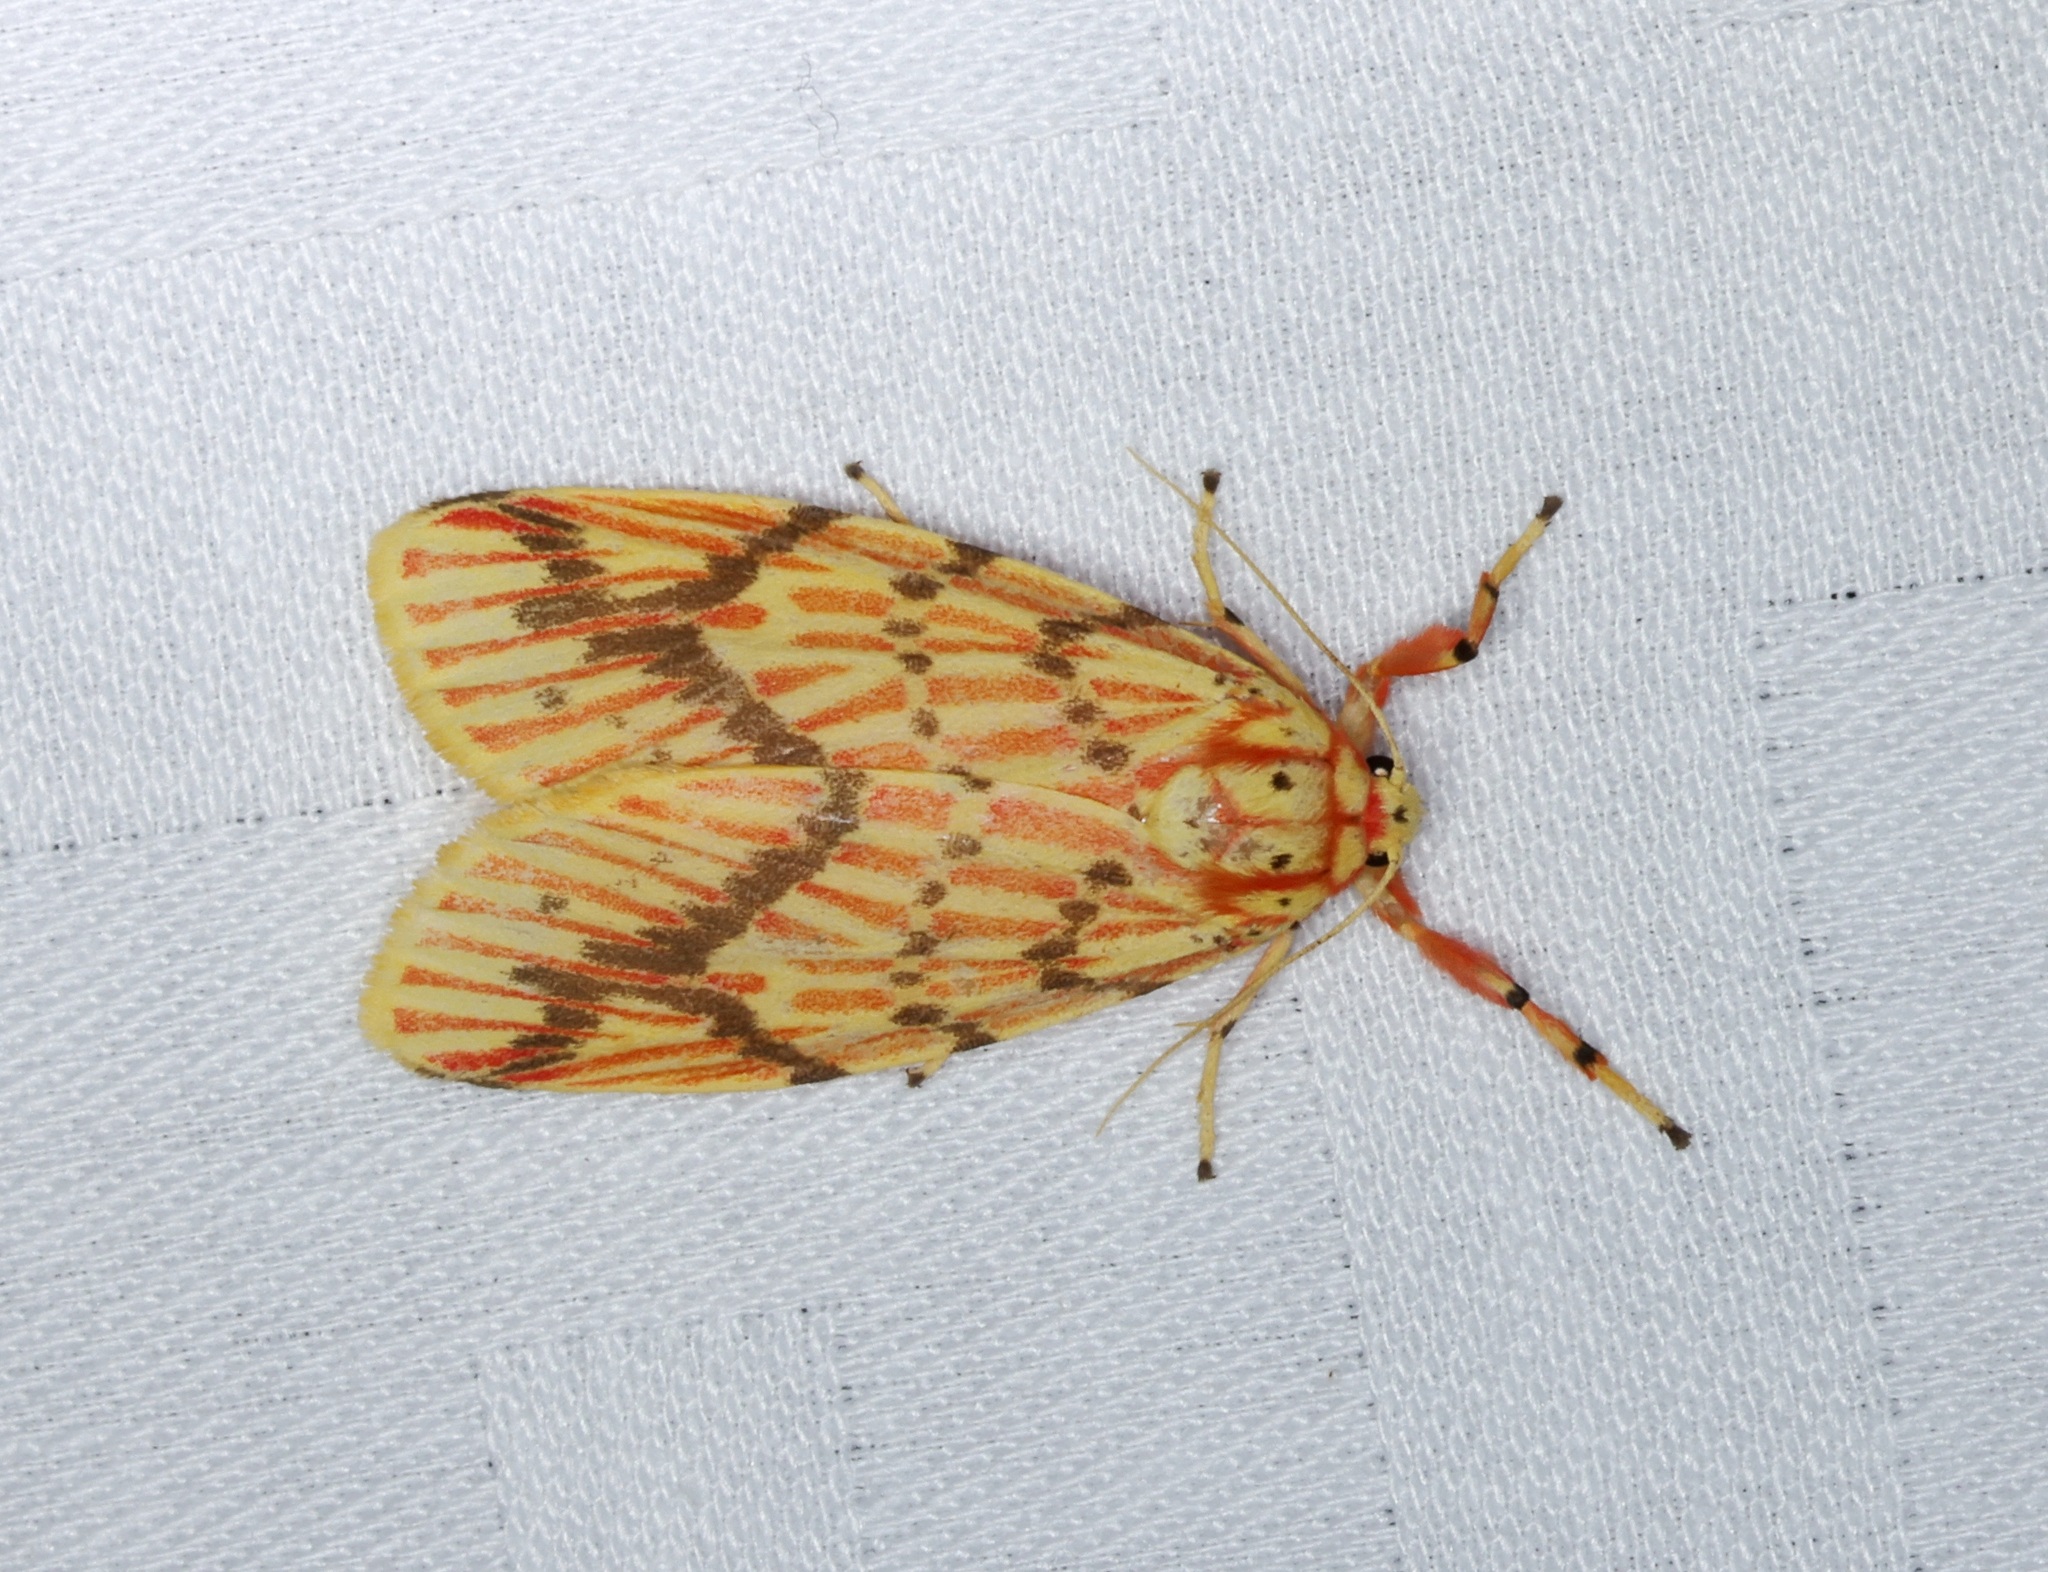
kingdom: Animalia
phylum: Arthropoda
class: Insecta
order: Lepidoptera
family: Erebidae
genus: Barsine
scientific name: Barsine striata
